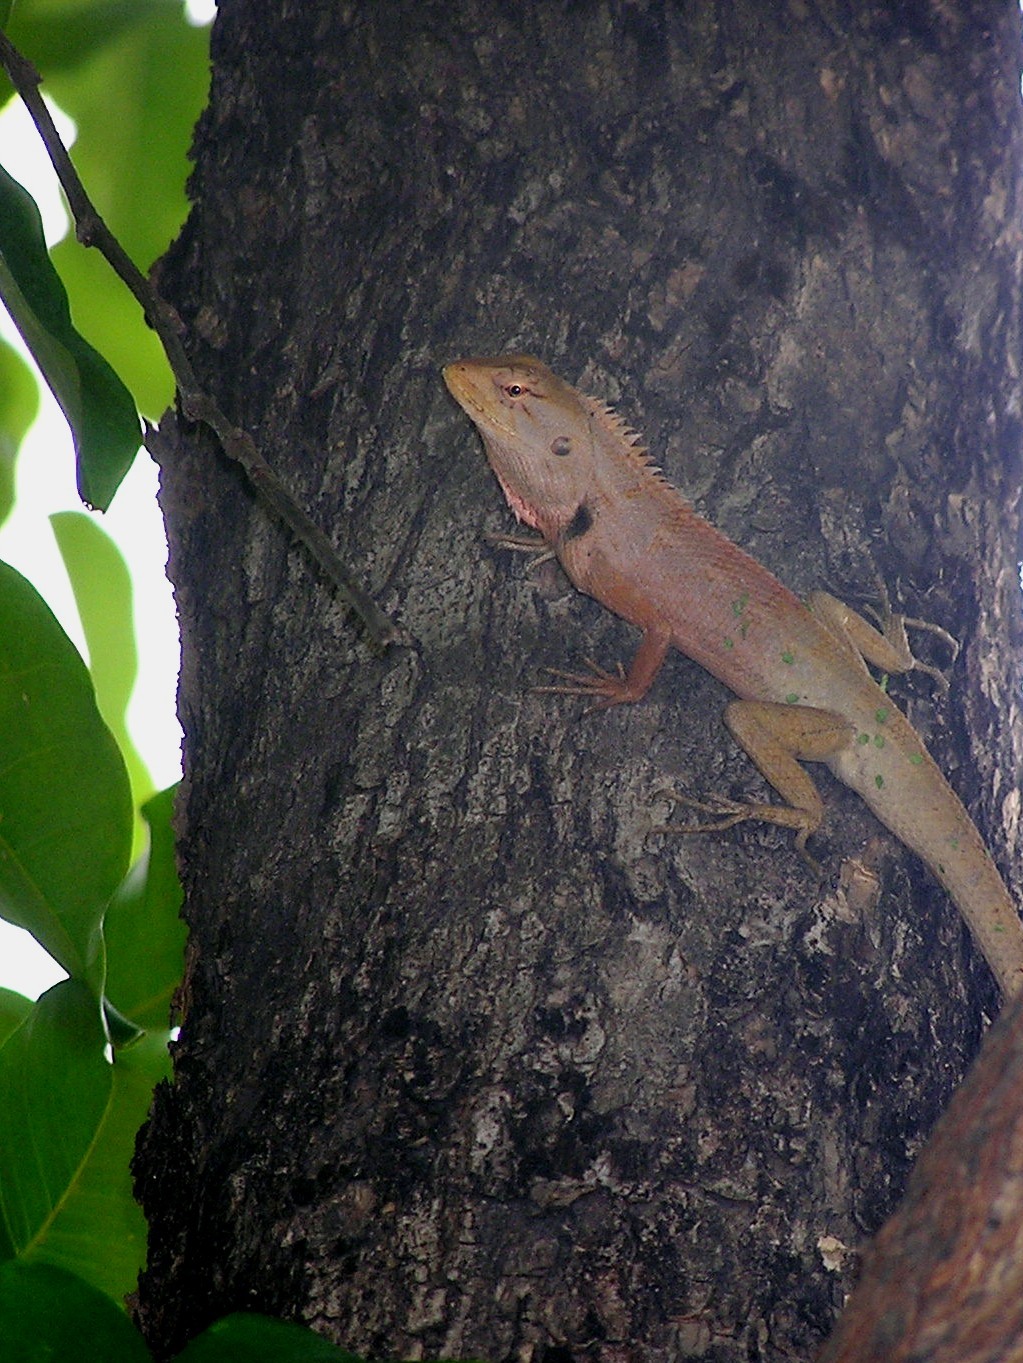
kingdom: Animalia
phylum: Chordata
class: Squamata
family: Agamidae
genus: Calotes
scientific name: Calotes versicolor
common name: Oriental garden lizard
